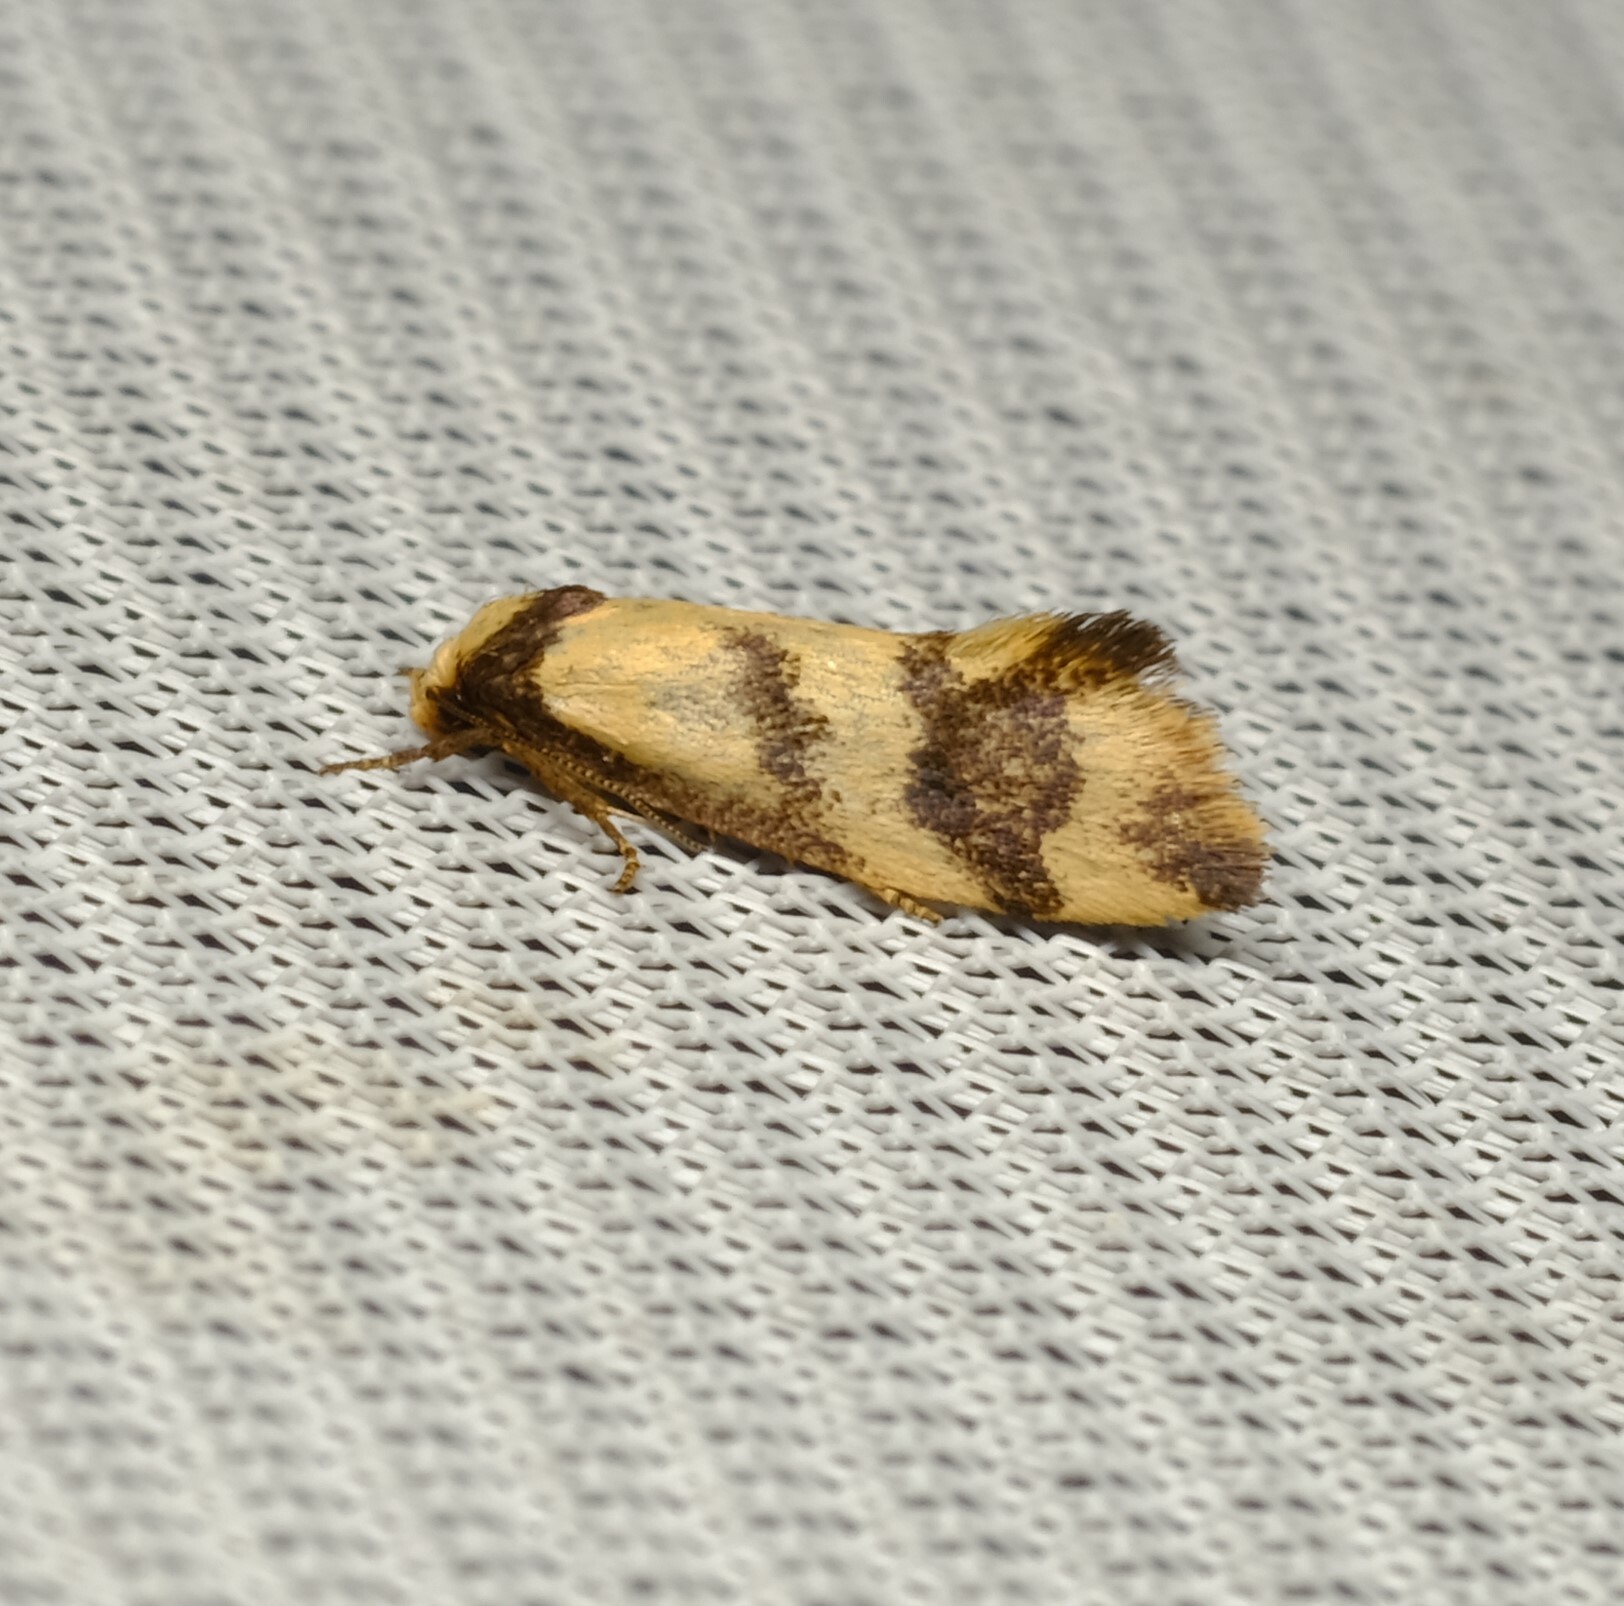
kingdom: Animalia
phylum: Arthropoda
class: Insecta
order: Lepidoptera
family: Oecophoridae
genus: Olbonoma
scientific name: Olbonoma triptycha
